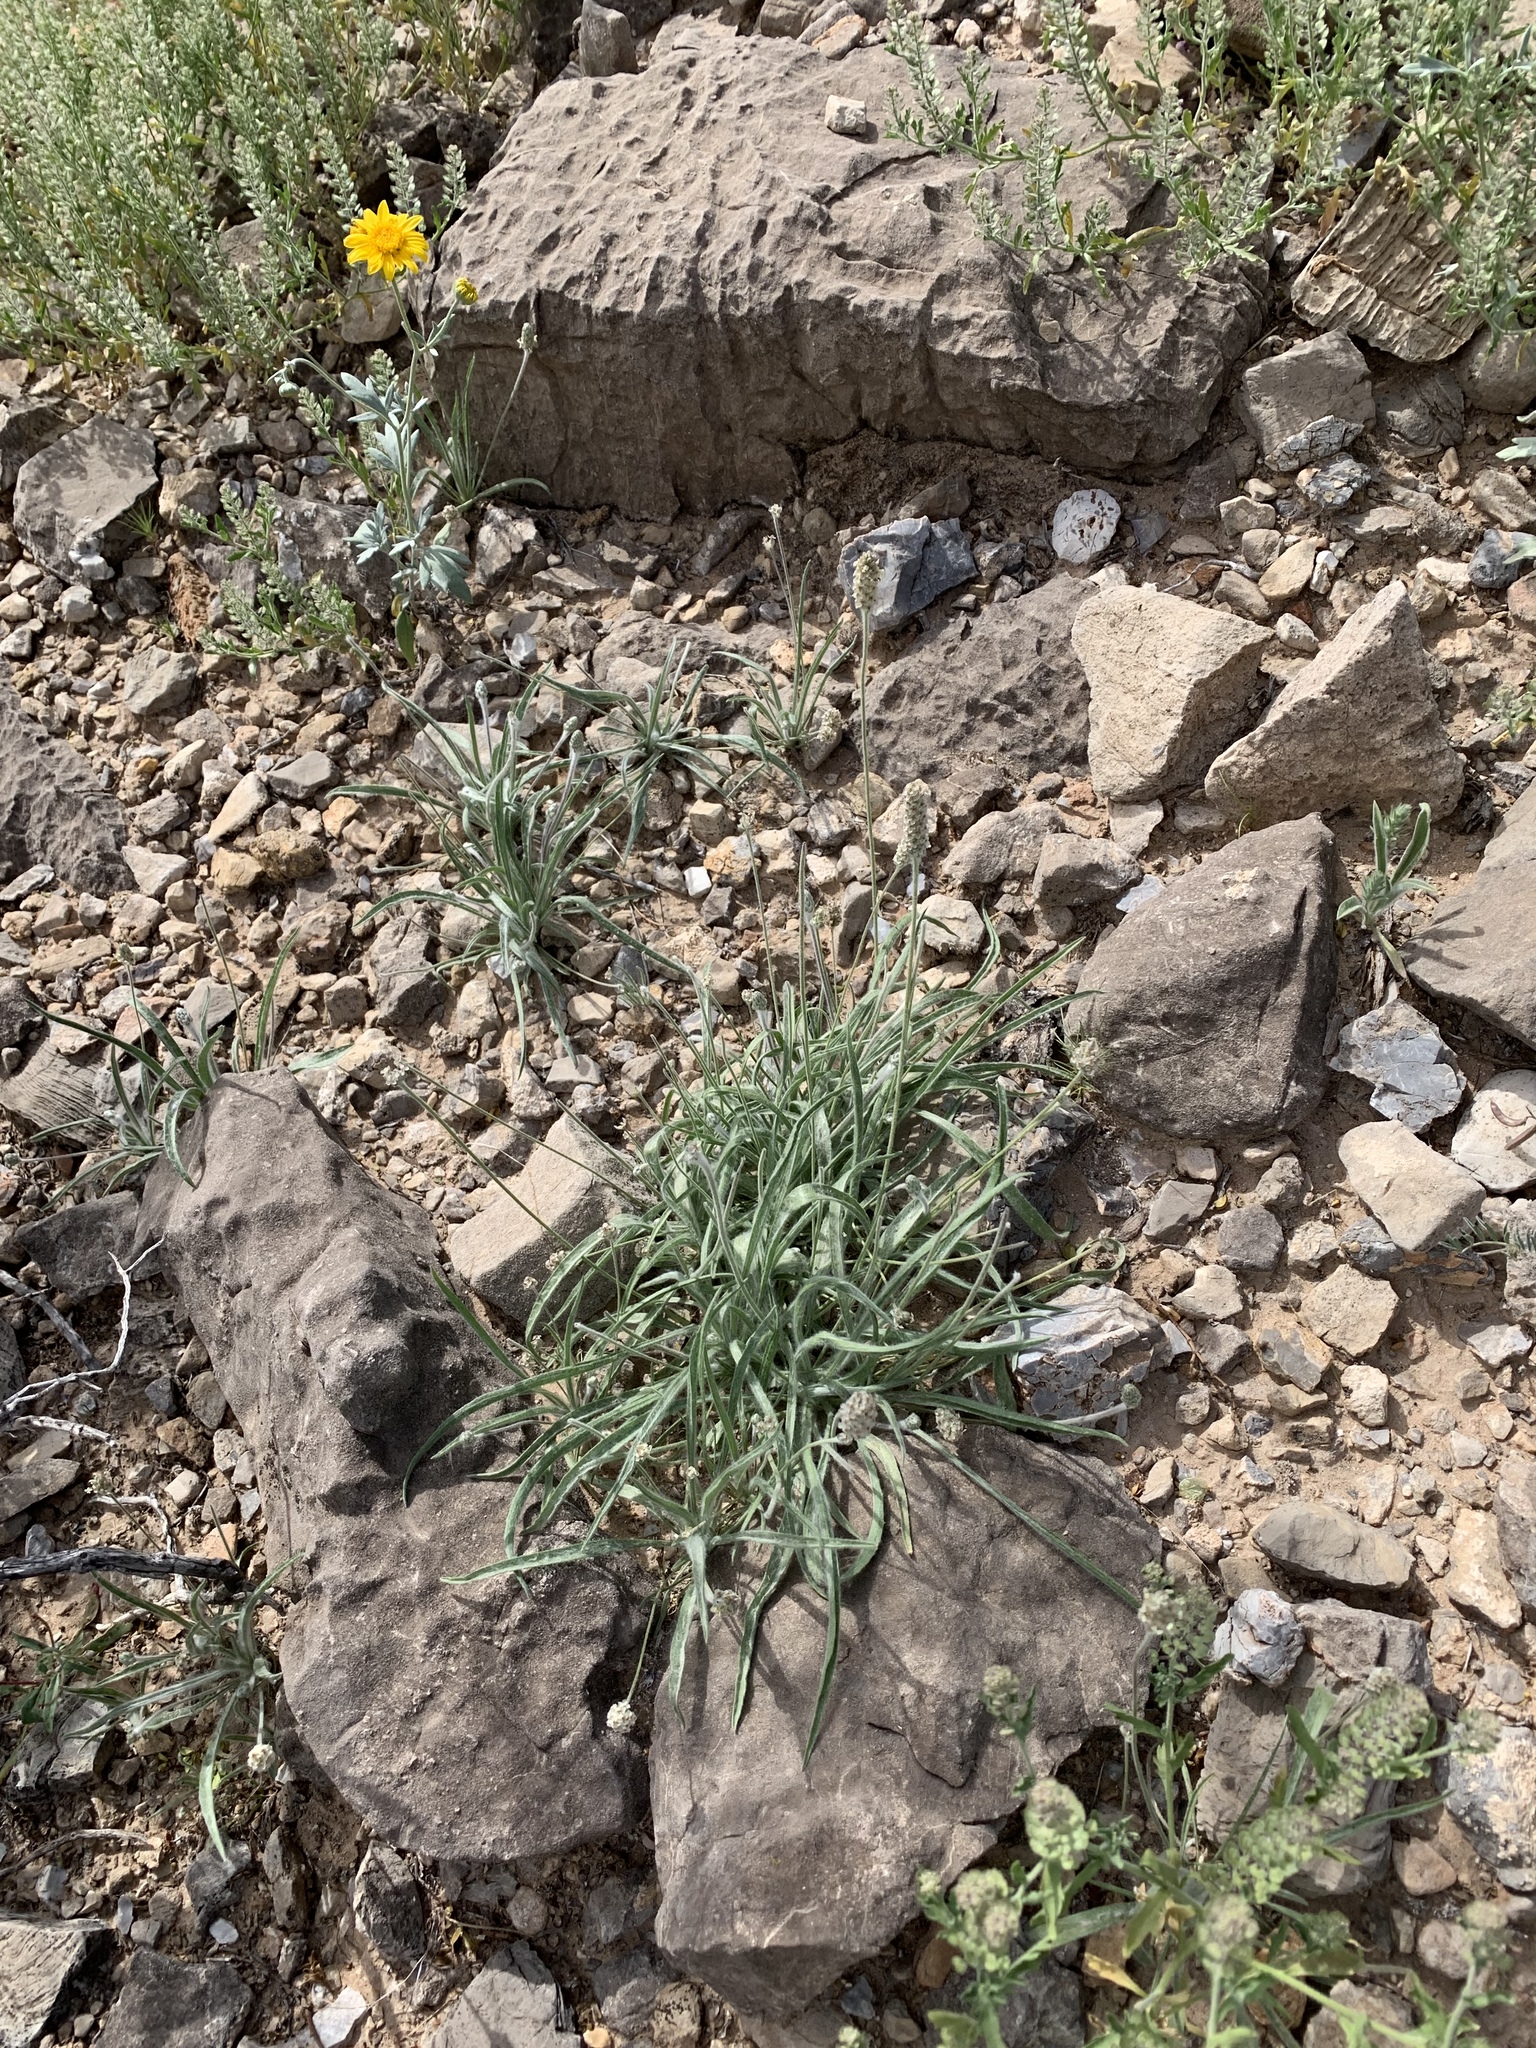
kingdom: Plantae
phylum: Tracheophyta
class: Magnoliopsida
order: Lamiales
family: Plantaginaceae
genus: Plantago
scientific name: Plantago ovata
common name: Blond plantain
